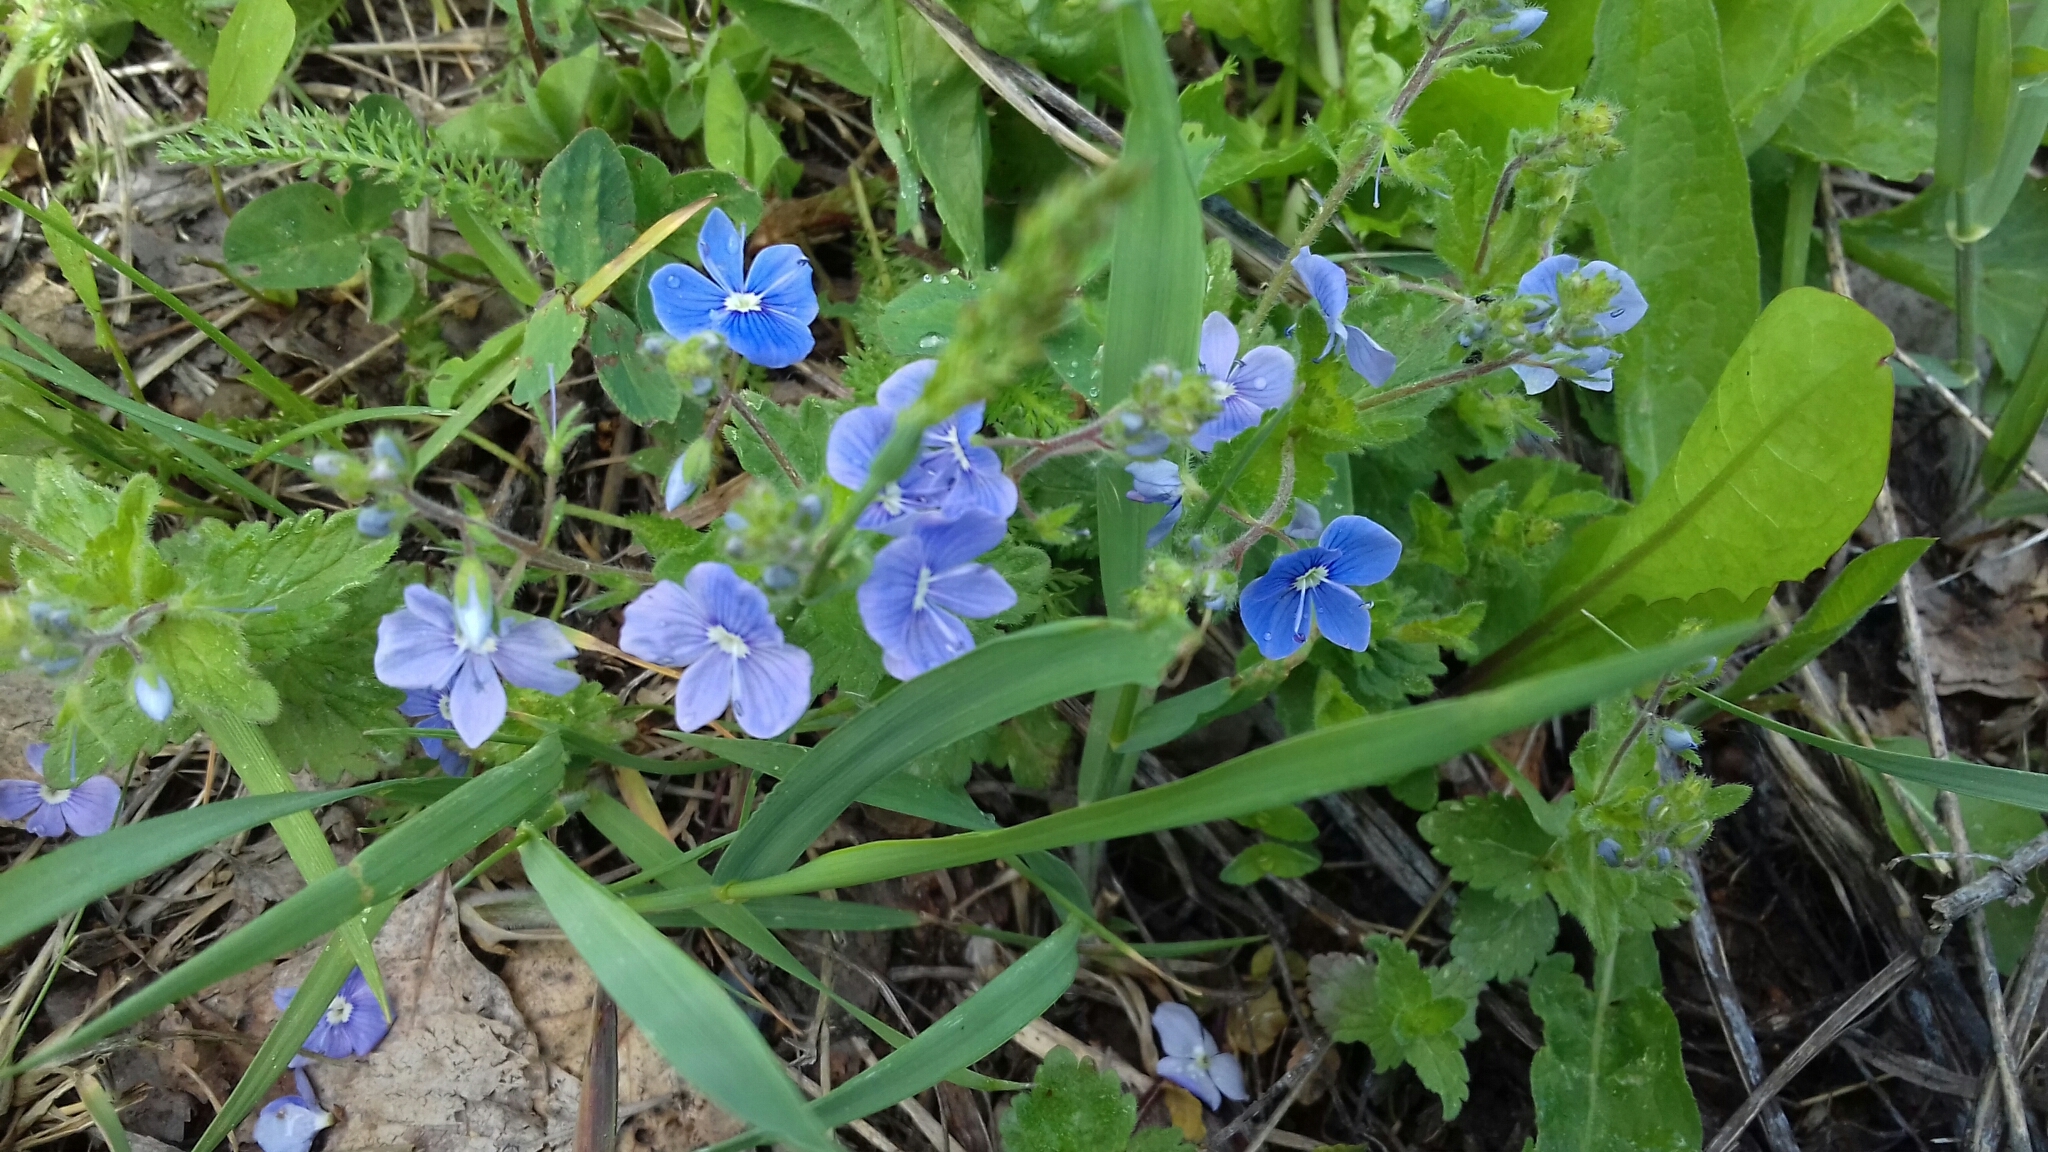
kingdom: Plantae
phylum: Tracheophyta
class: Magnoliopsida
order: Lamiales
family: Plantaginaceae
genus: Veronica
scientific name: Veronica chamaedrys
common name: Germander speedwell
